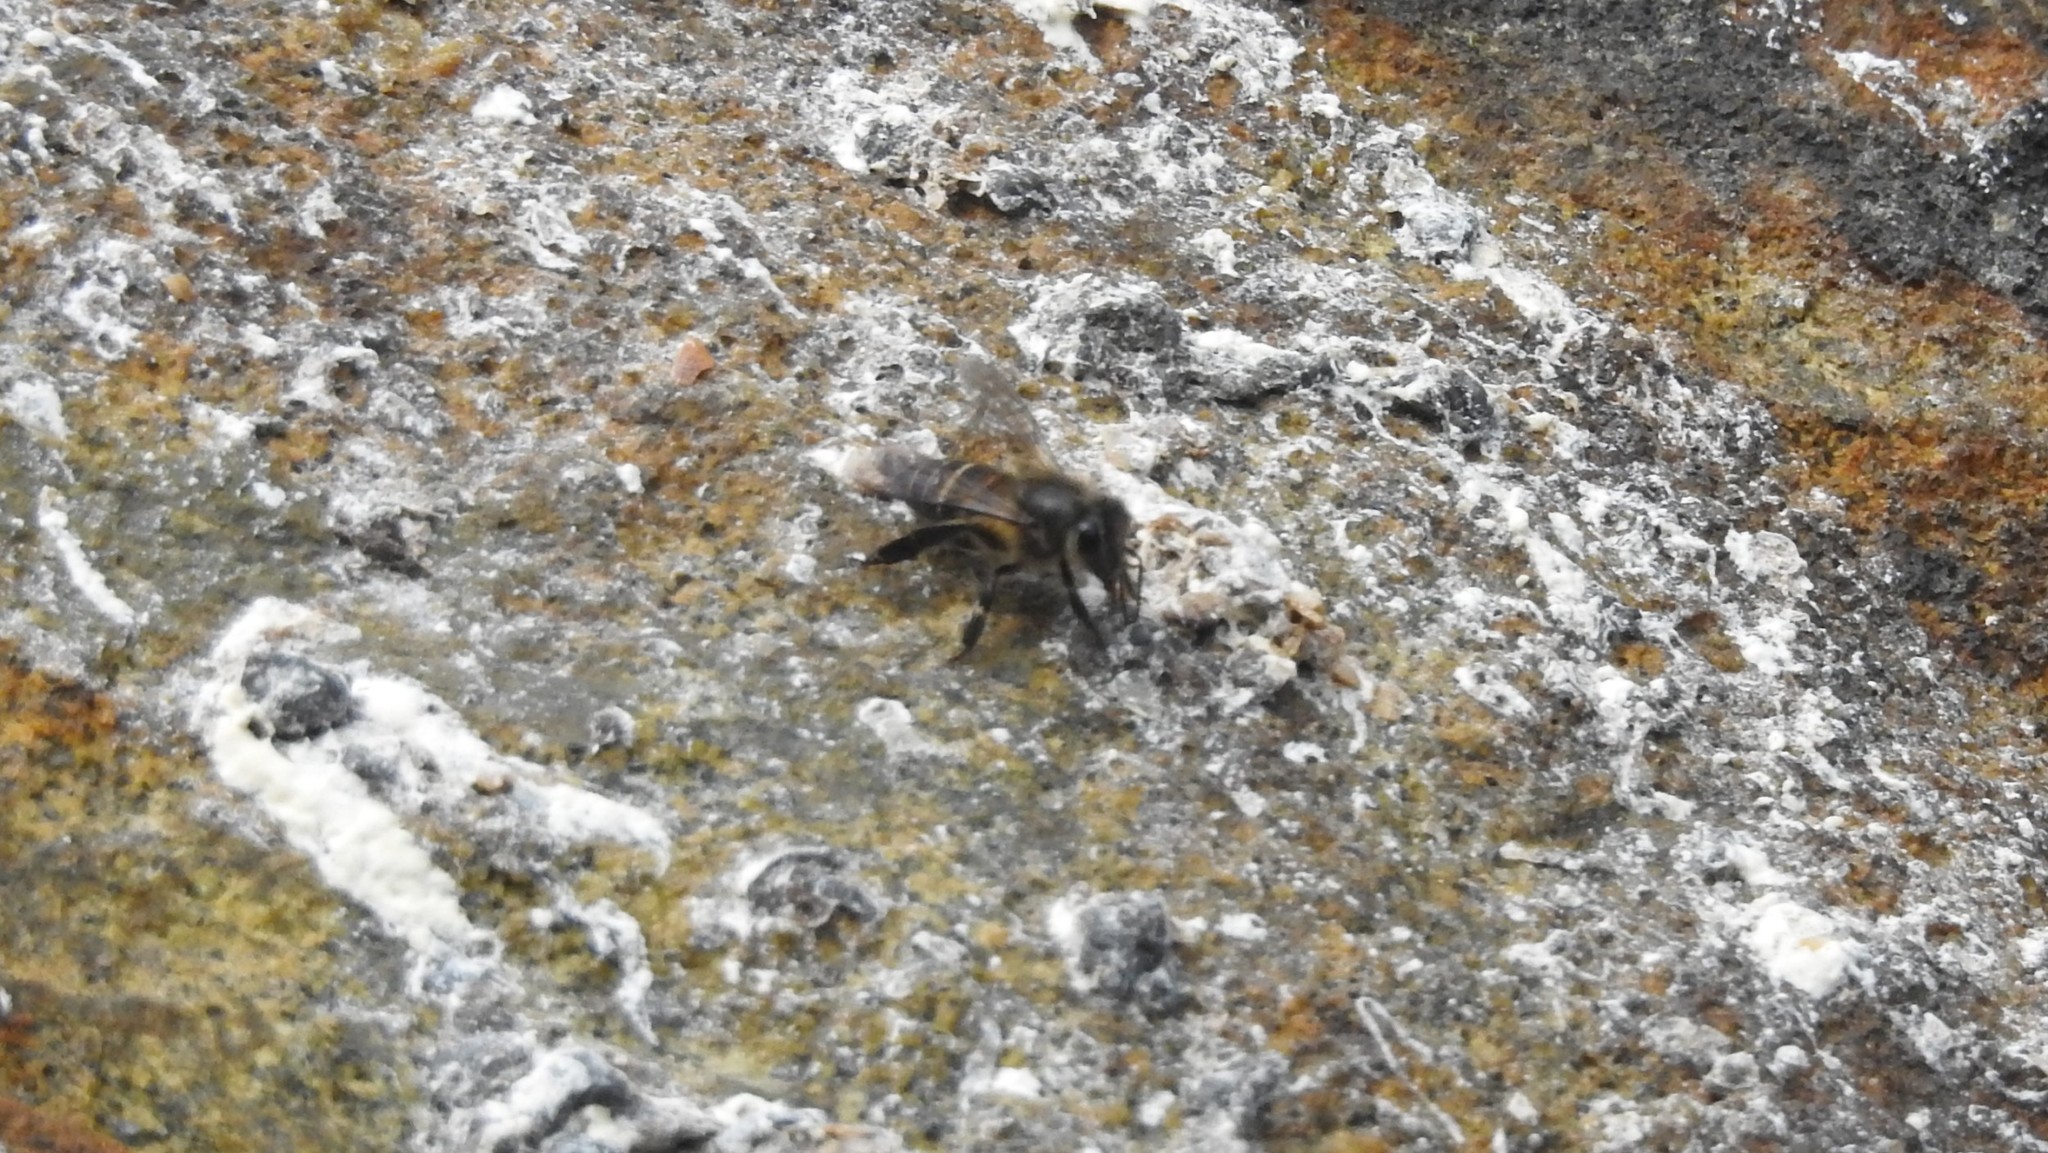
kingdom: Animalia
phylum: Arthropoda
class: Insecta
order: Hymenoptera
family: Apidae
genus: Apis
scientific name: Apis cerana
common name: Honey bee
